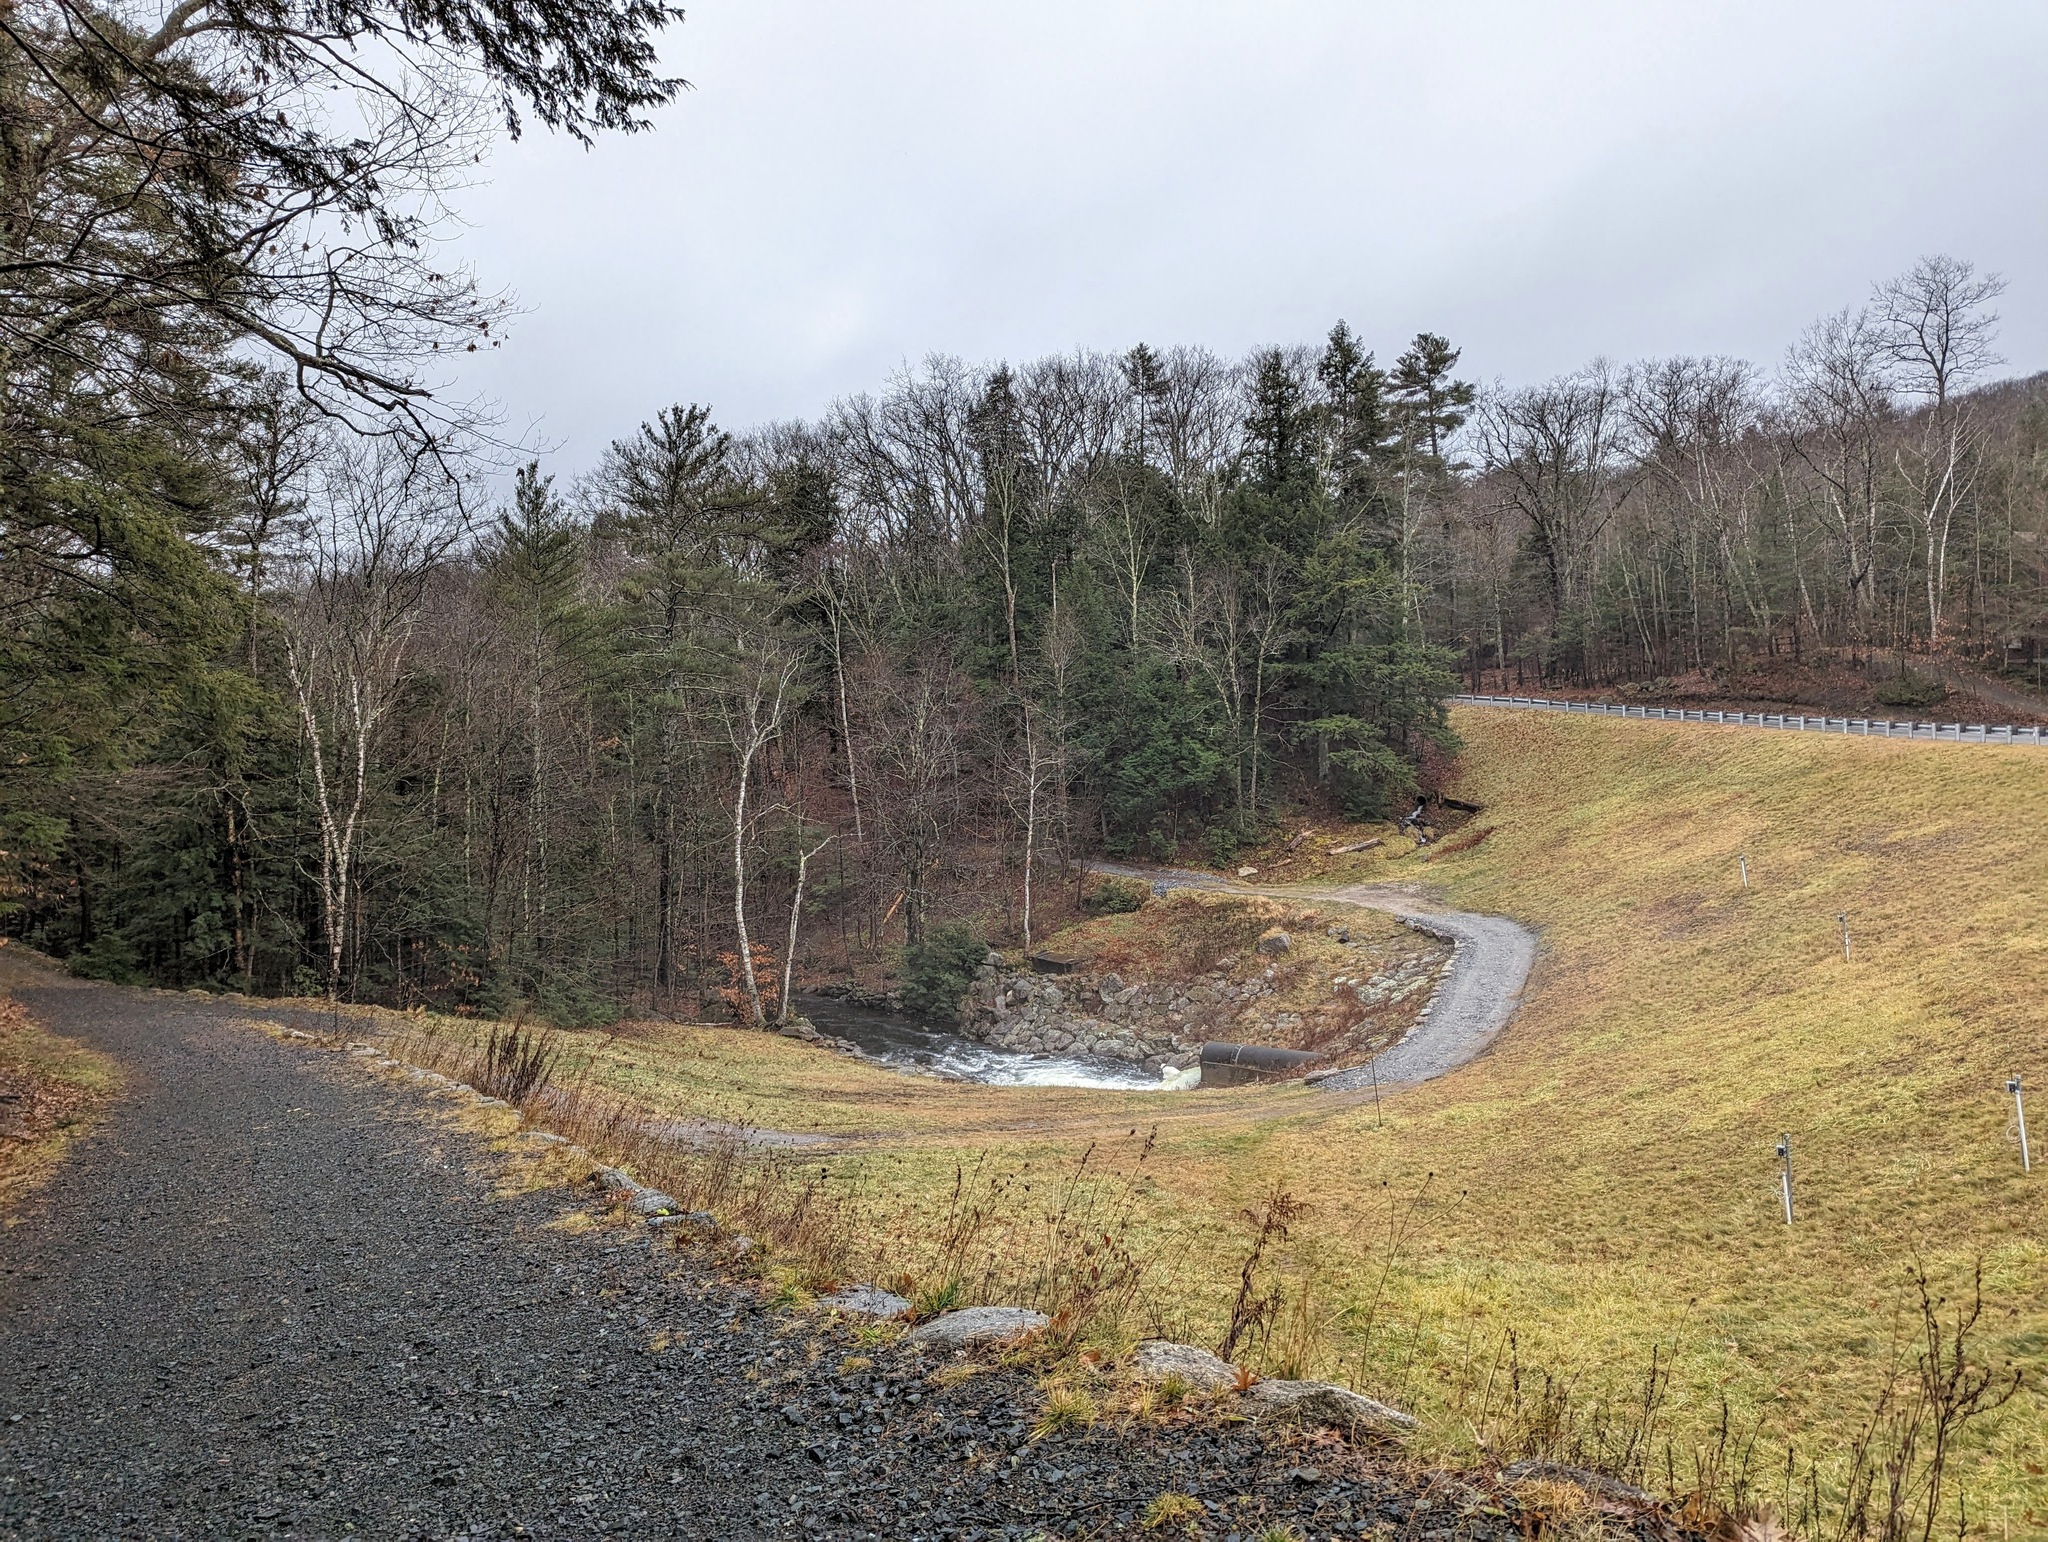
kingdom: Plantae
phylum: Tracheophyta
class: Pinopsida
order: Pinales
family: Pinaceae
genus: Pinus
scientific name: Pinus strobus
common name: Weymouth pine
